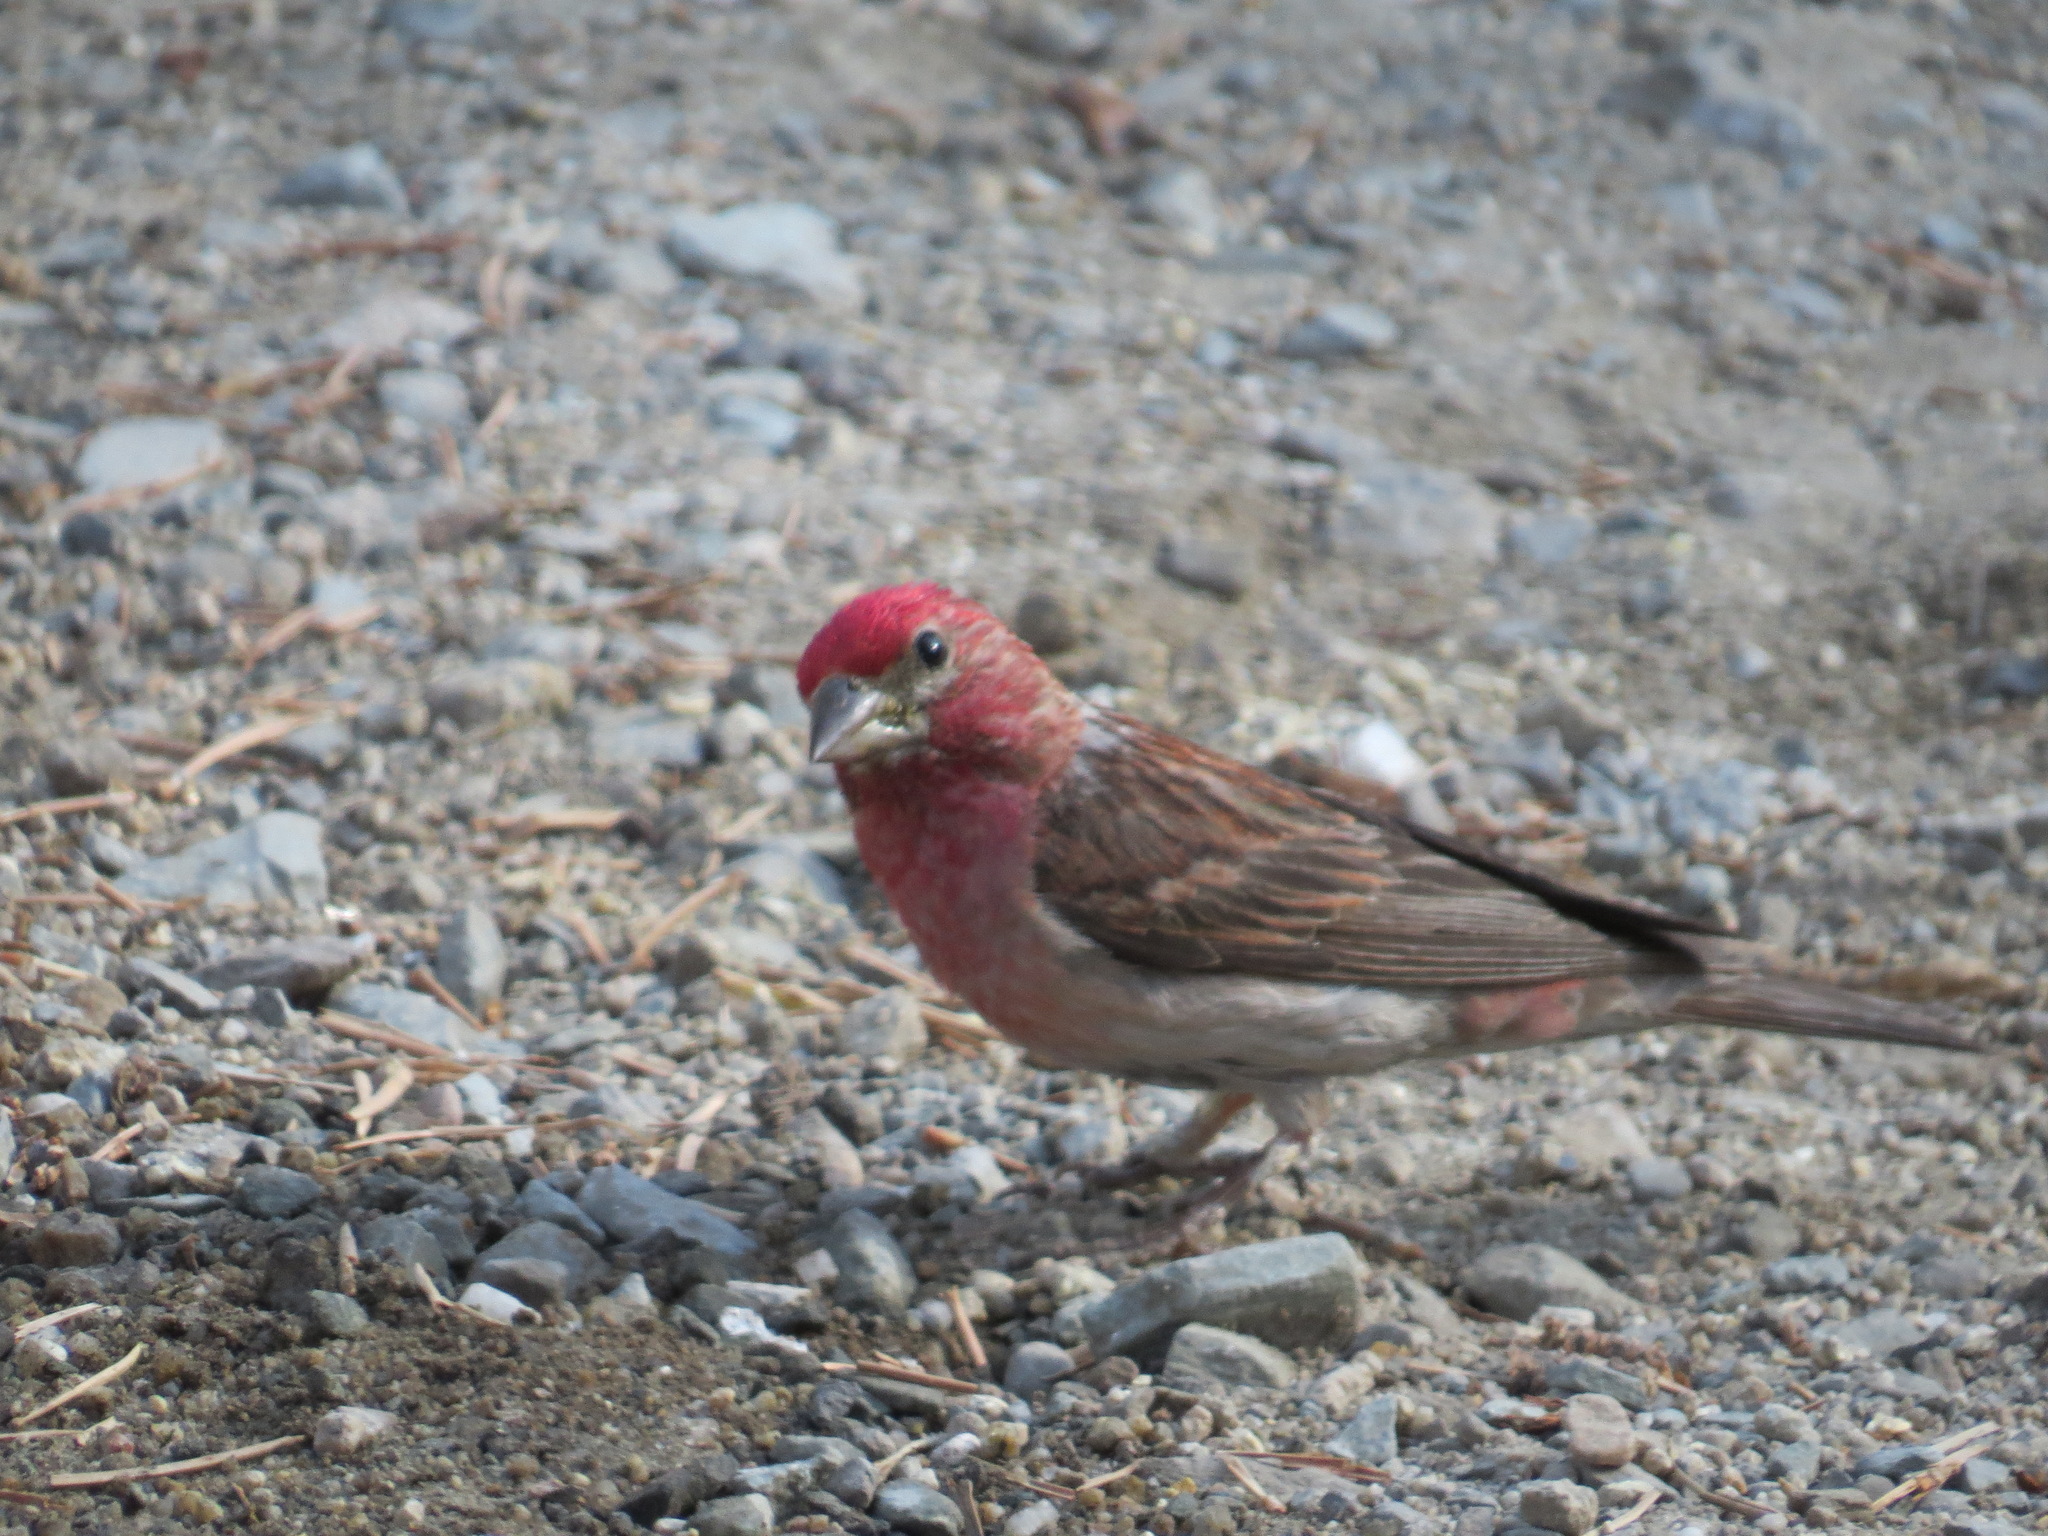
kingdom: Animalia
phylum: Chordata
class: Aves
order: Passeriformes
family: Fringillidae
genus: Haemorhous
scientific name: Haemorhous cassinii
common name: Cassin's finch
